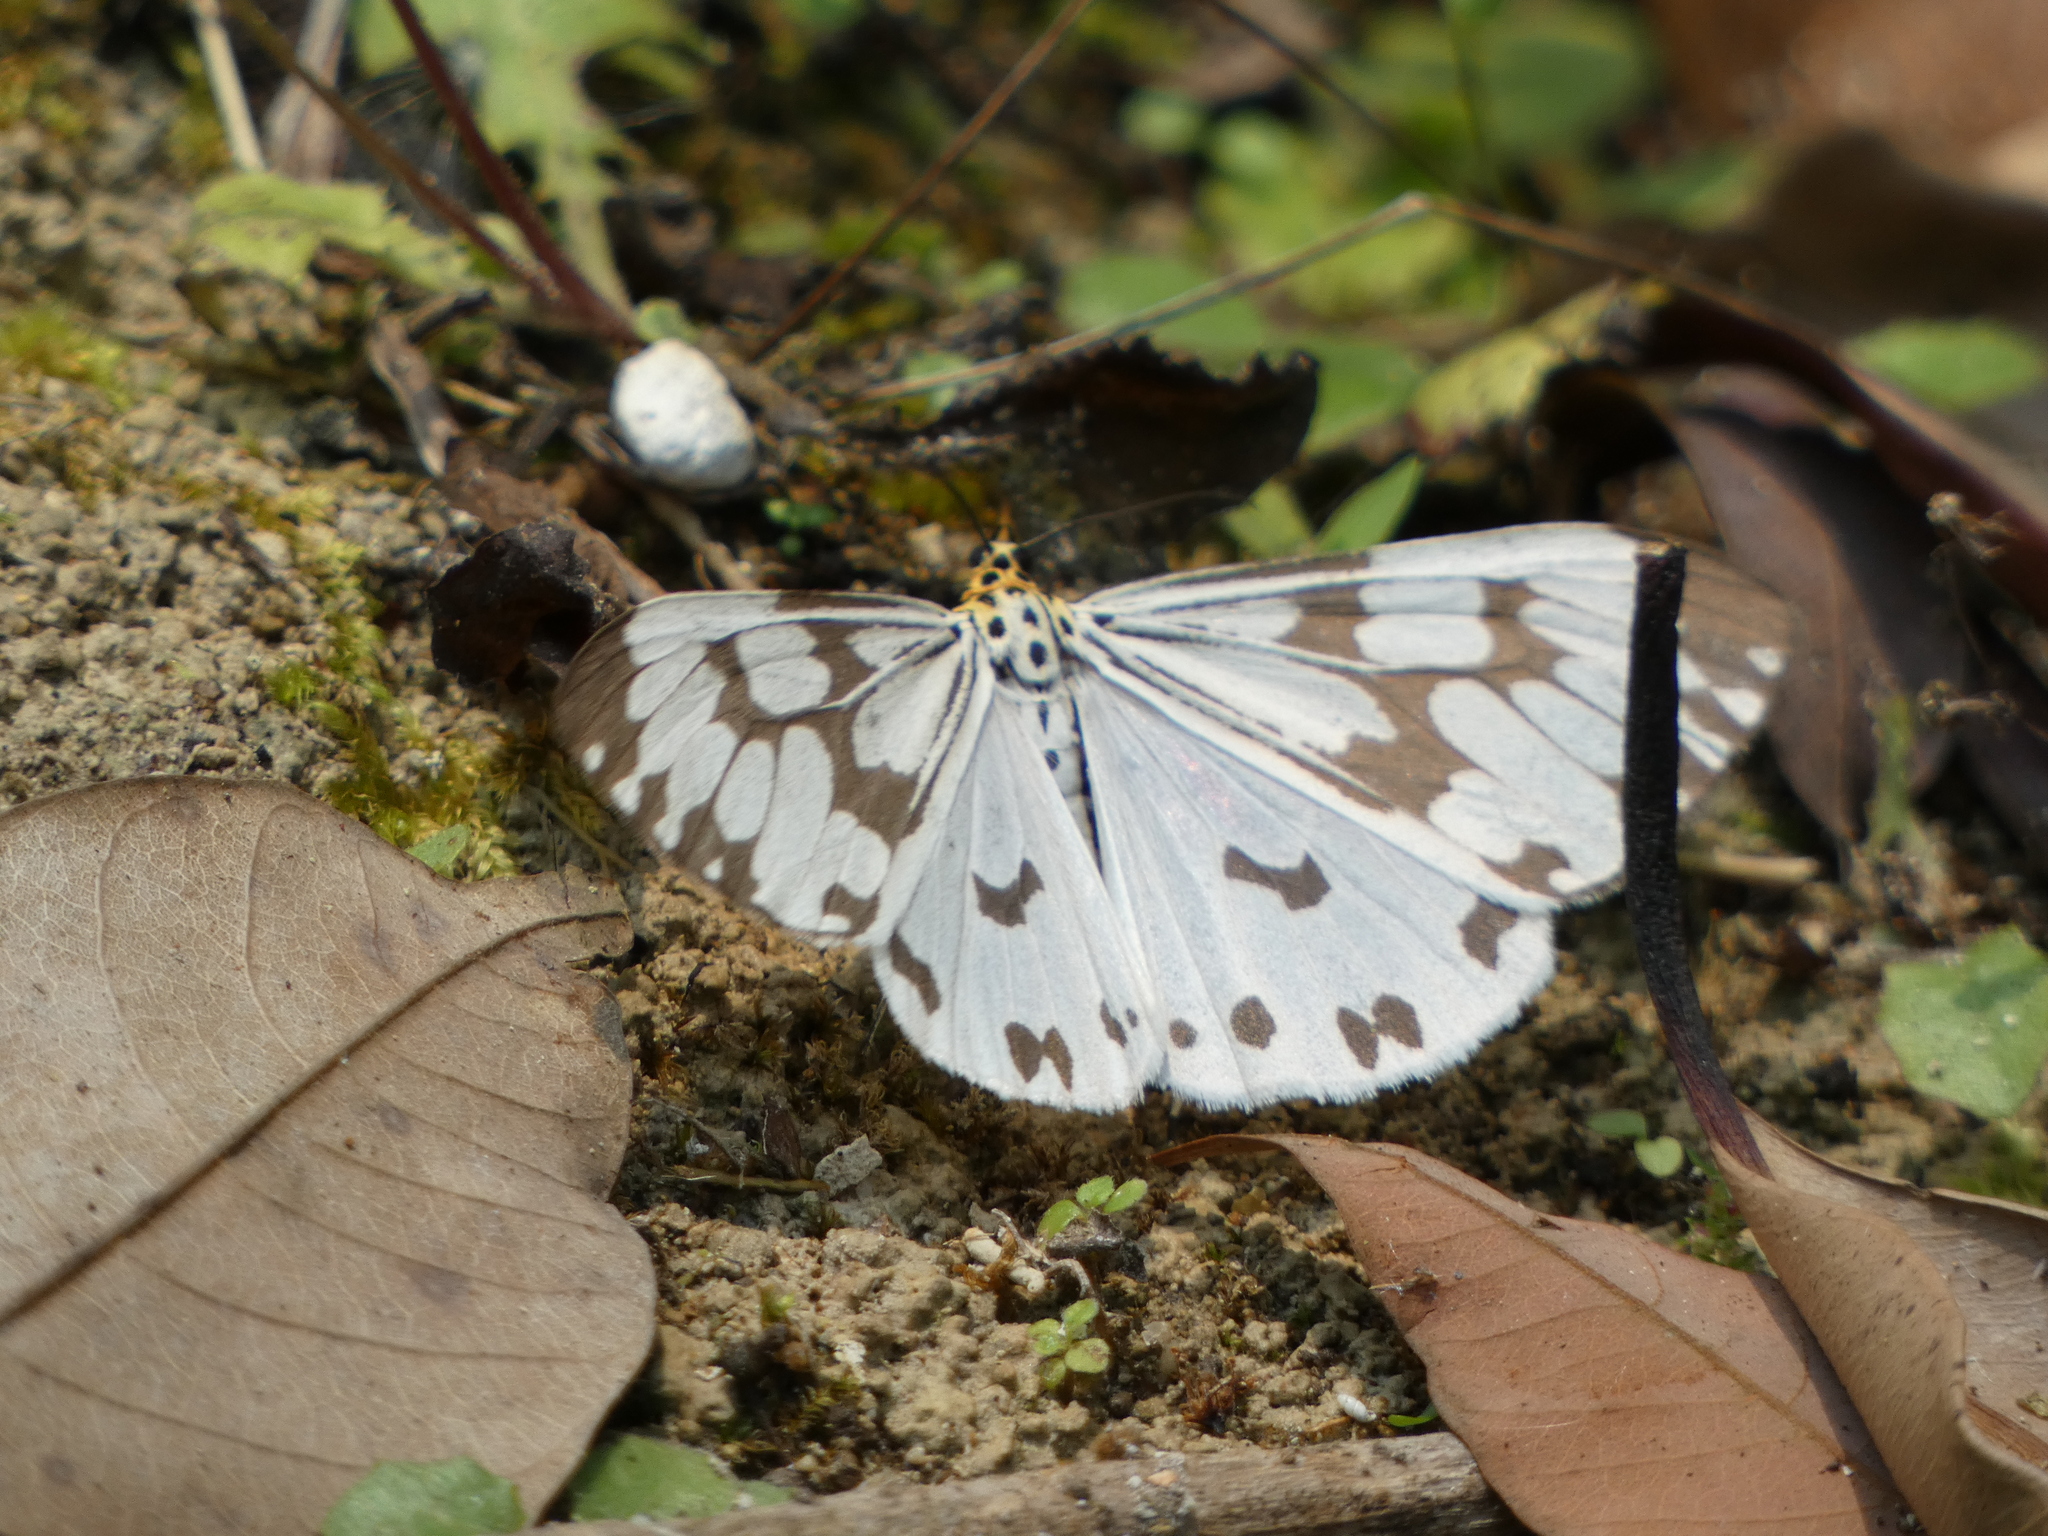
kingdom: Animalia
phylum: Arthropoda
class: Insecta
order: Lepidoptera
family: Erebidae
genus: Nyctemera
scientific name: Nyctemera adversata
